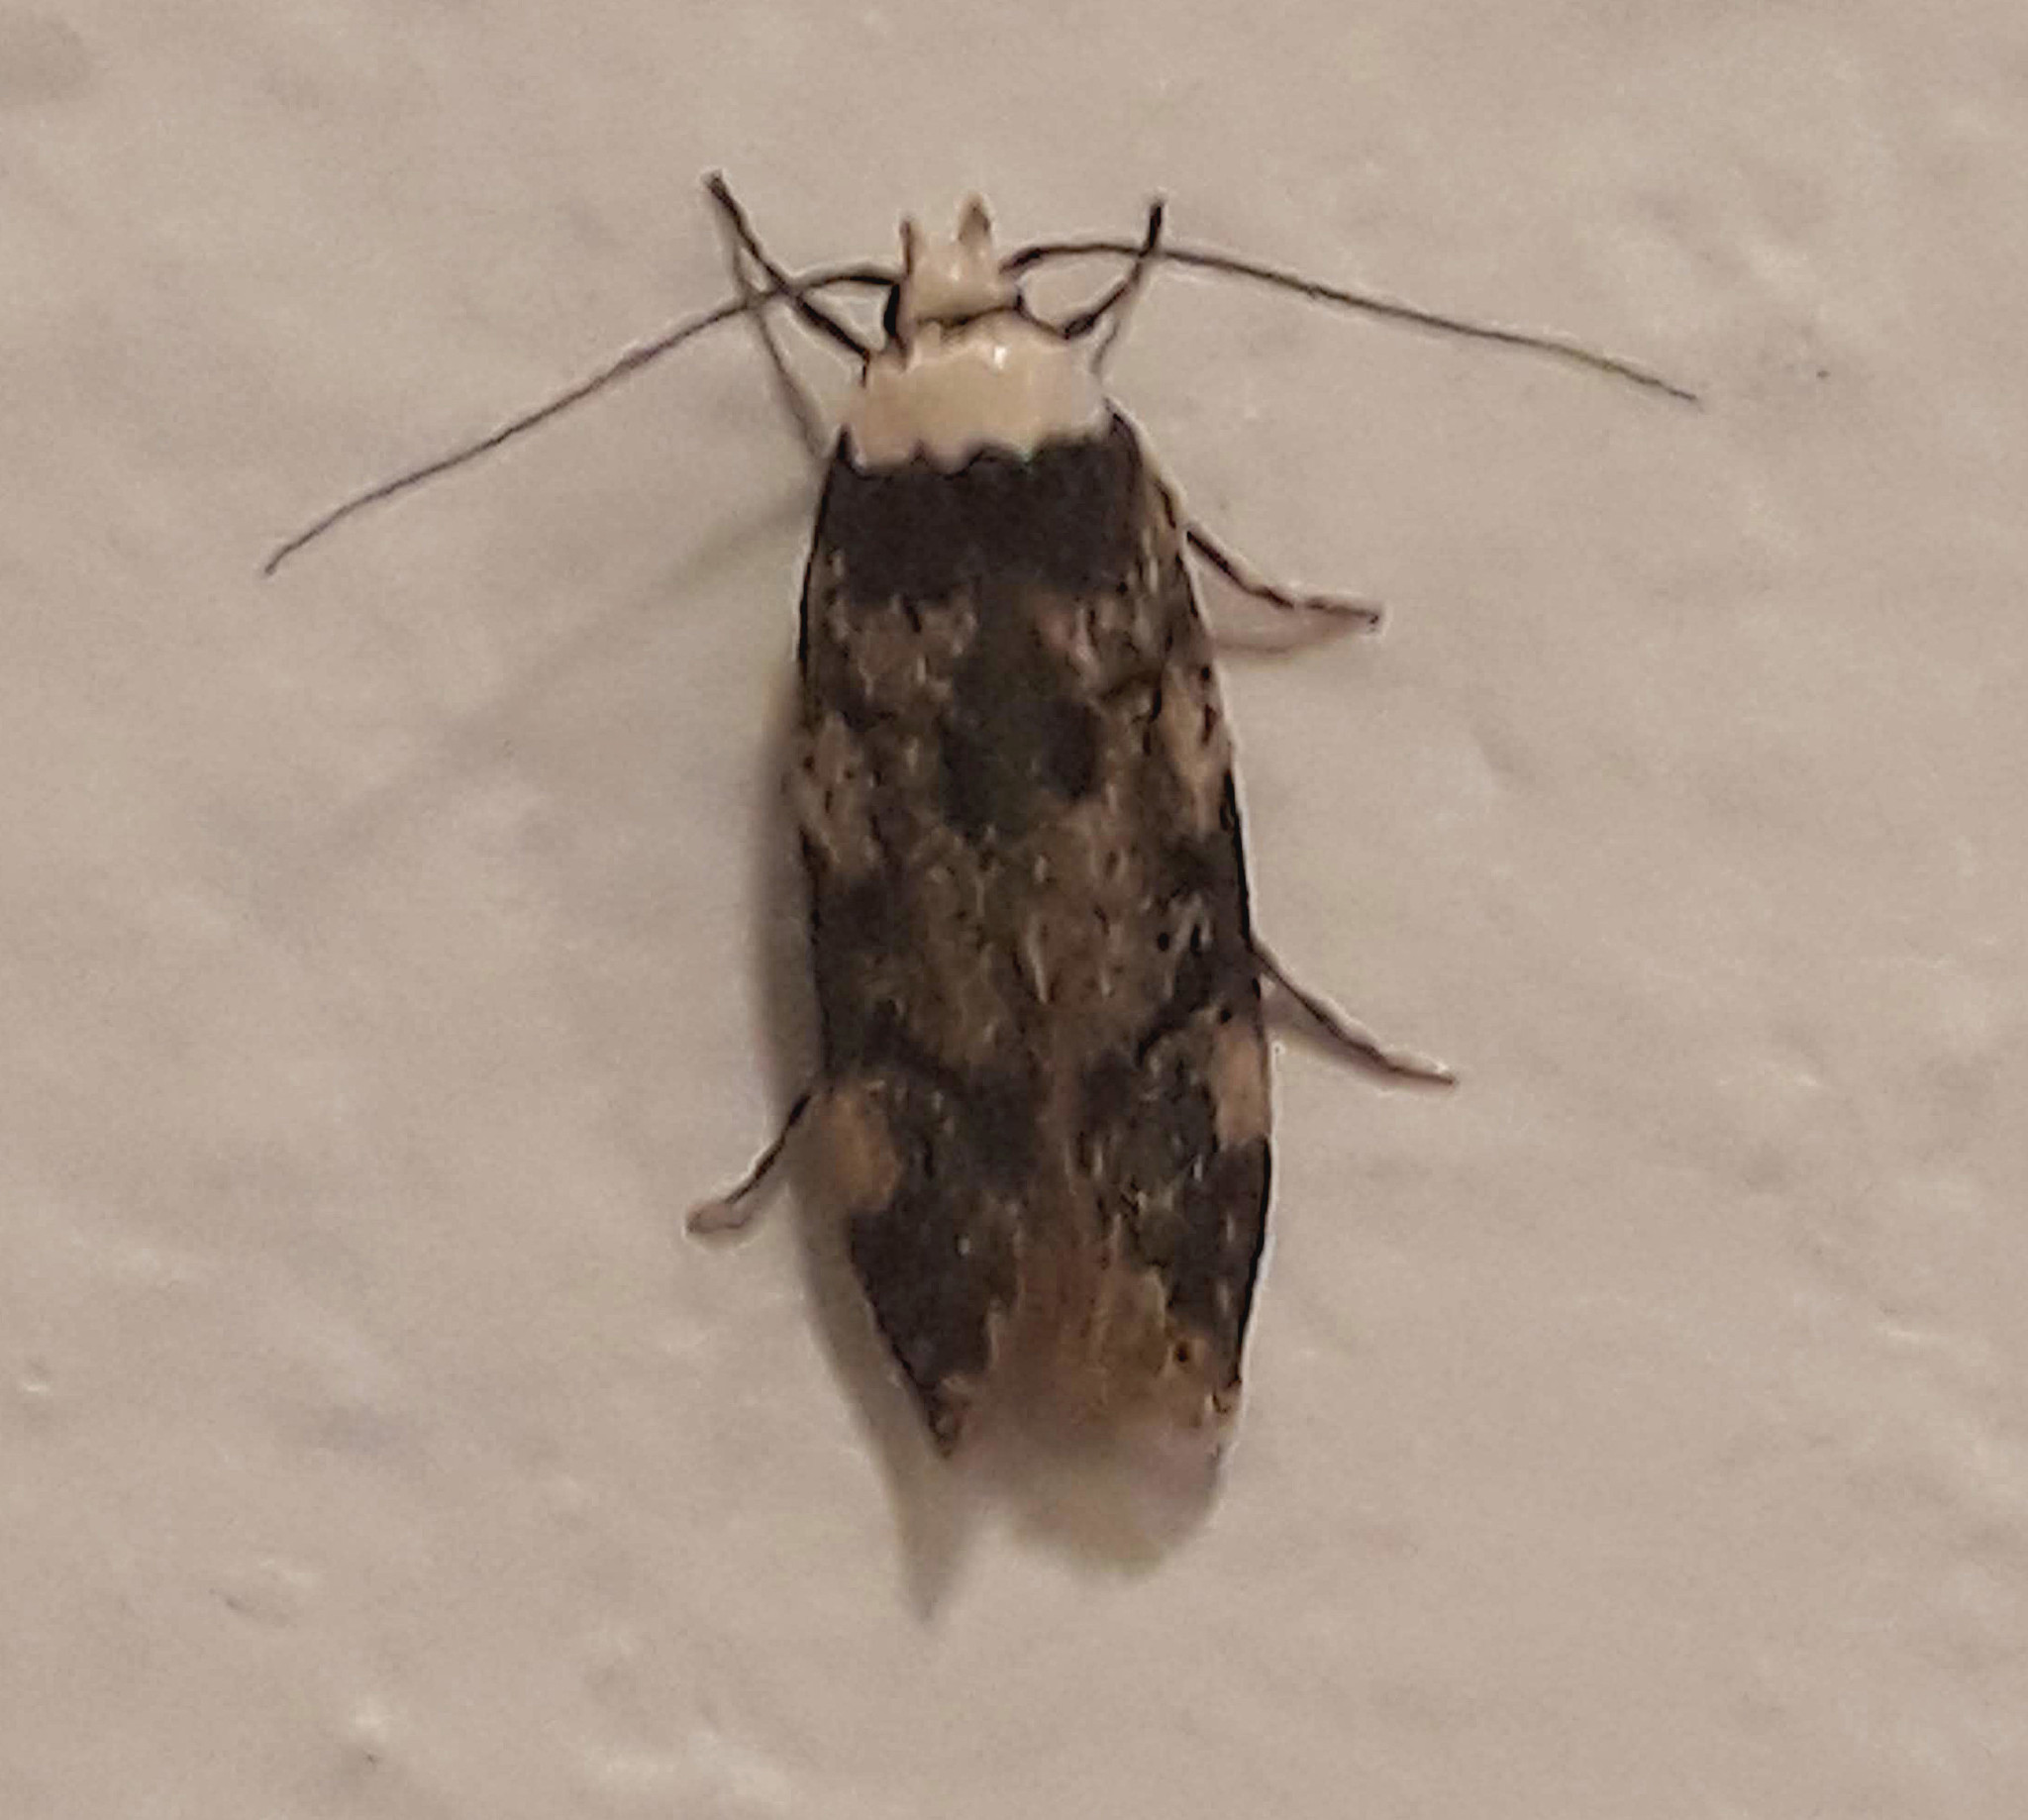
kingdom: Animalia
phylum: Arthropoda
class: Insecta
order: Lepidoptera
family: Oecophoridae
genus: Endrosis
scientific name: Endrosis sarcitrella
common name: White-shouldered house moth
